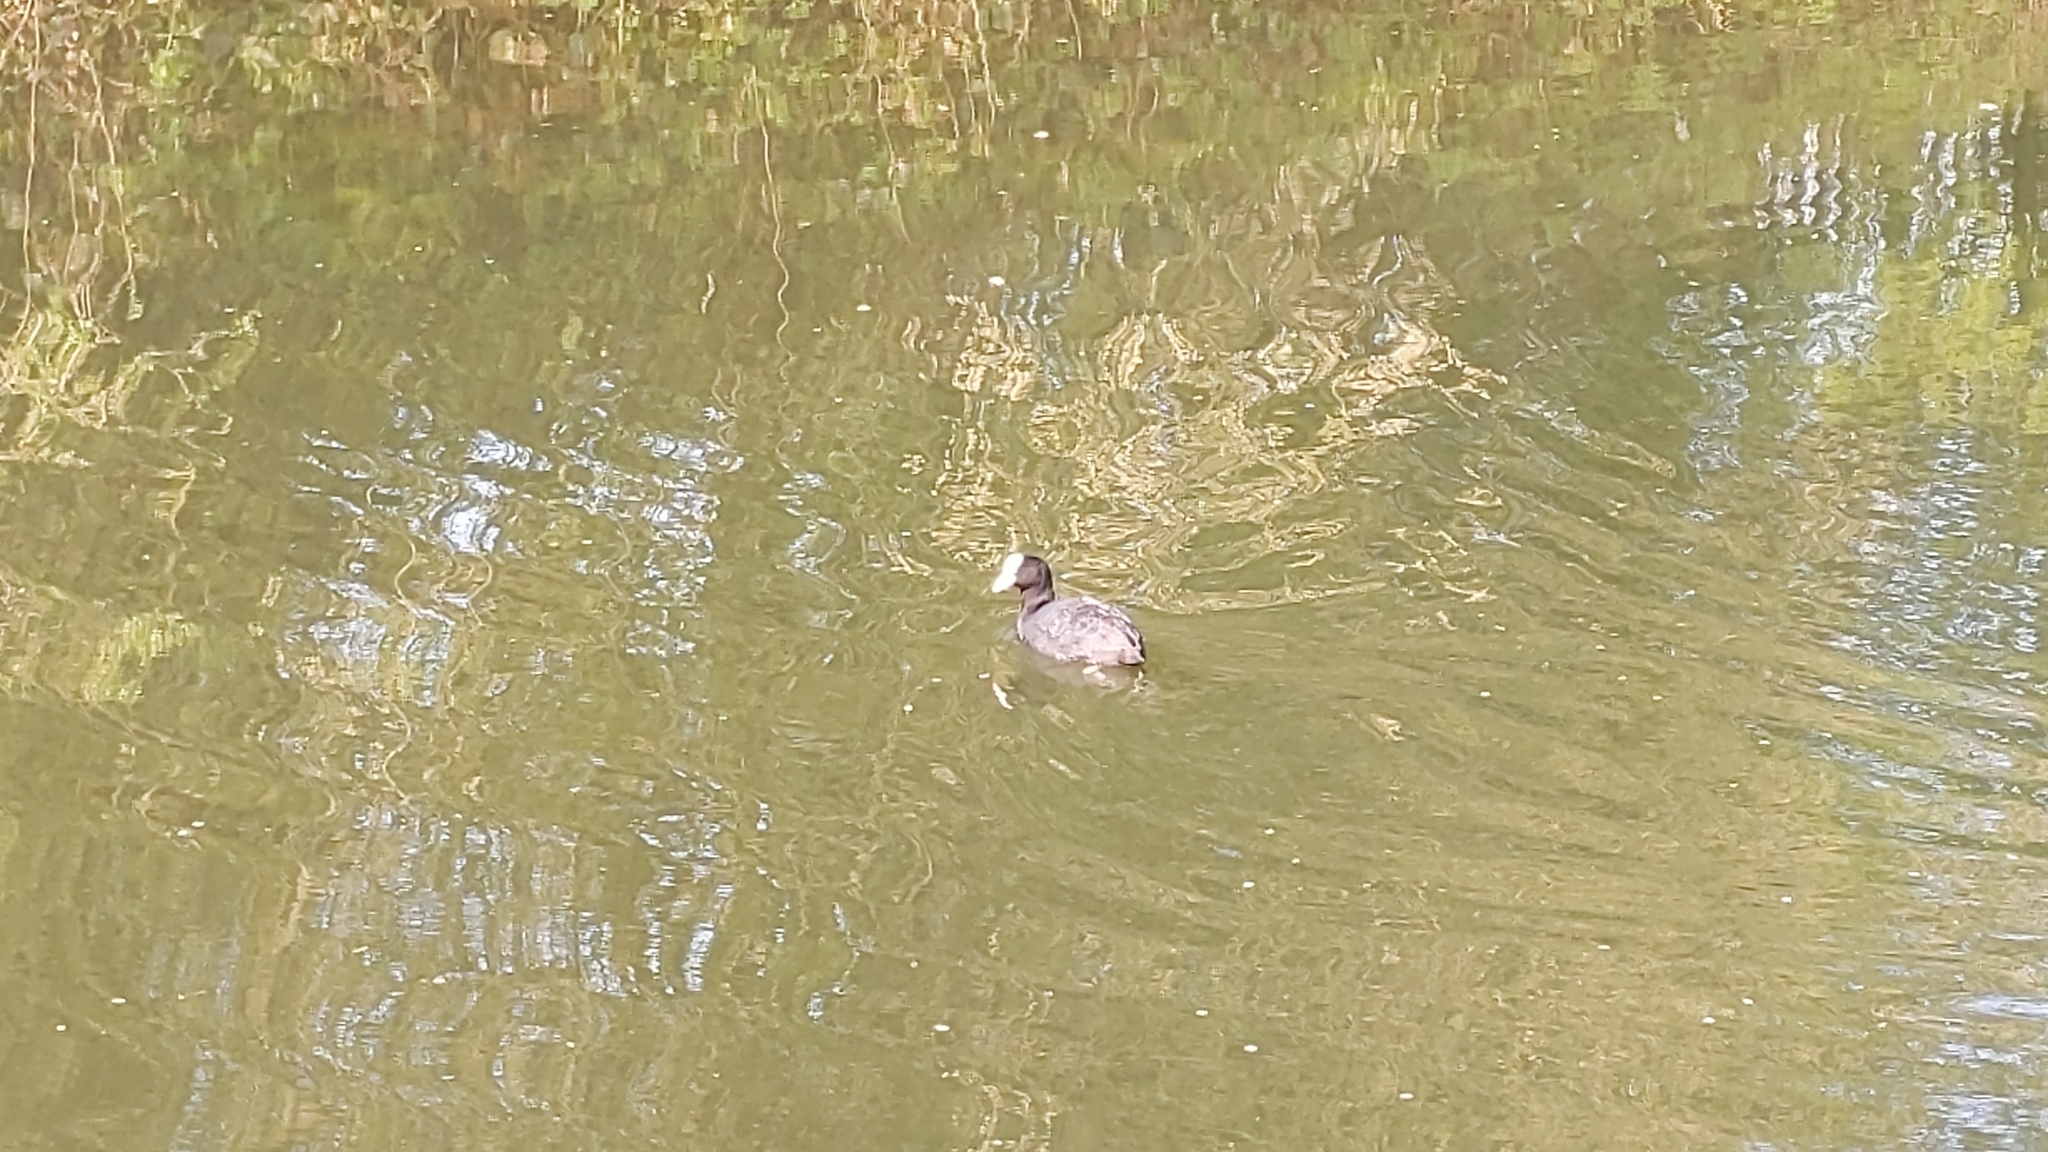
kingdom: Animalia
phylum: Chordata
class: Aves
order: Gruiformes
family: Rallidae
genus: Fulica
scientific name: Fulica atra
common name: Eurasian coot
